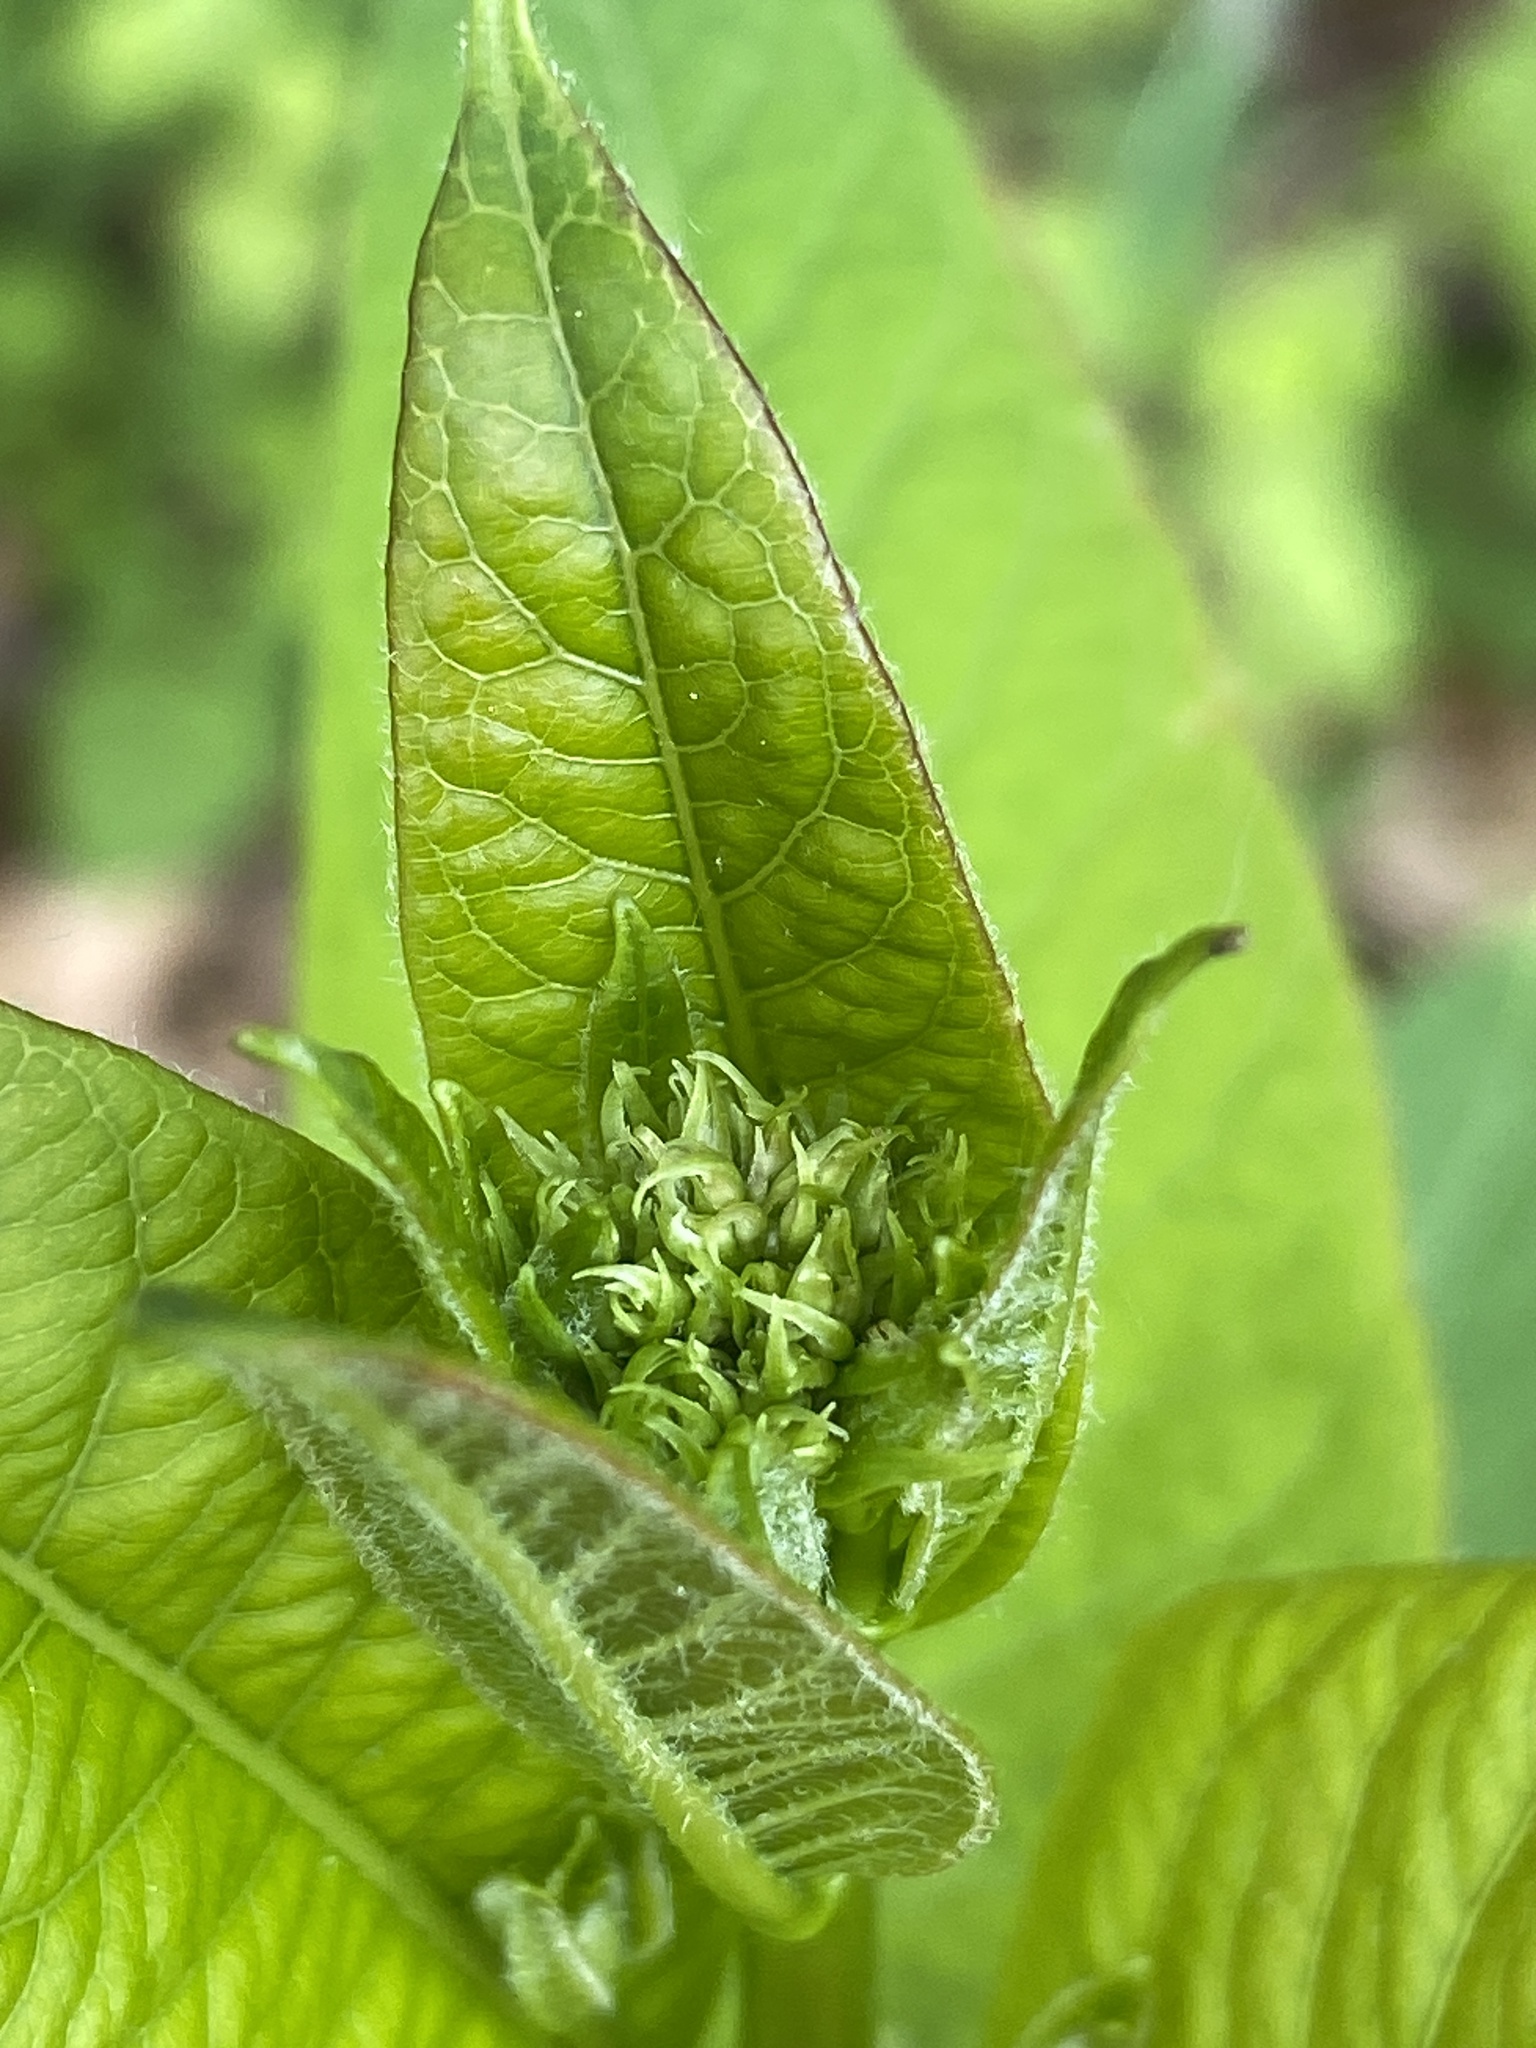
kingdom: Plantae
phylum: Tracheophyta
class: Magnoliopsida
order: Gentianales
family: Apocynaceae
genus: Apocynum
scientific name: Apocynum cannabinum
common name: Hemp dogbane
